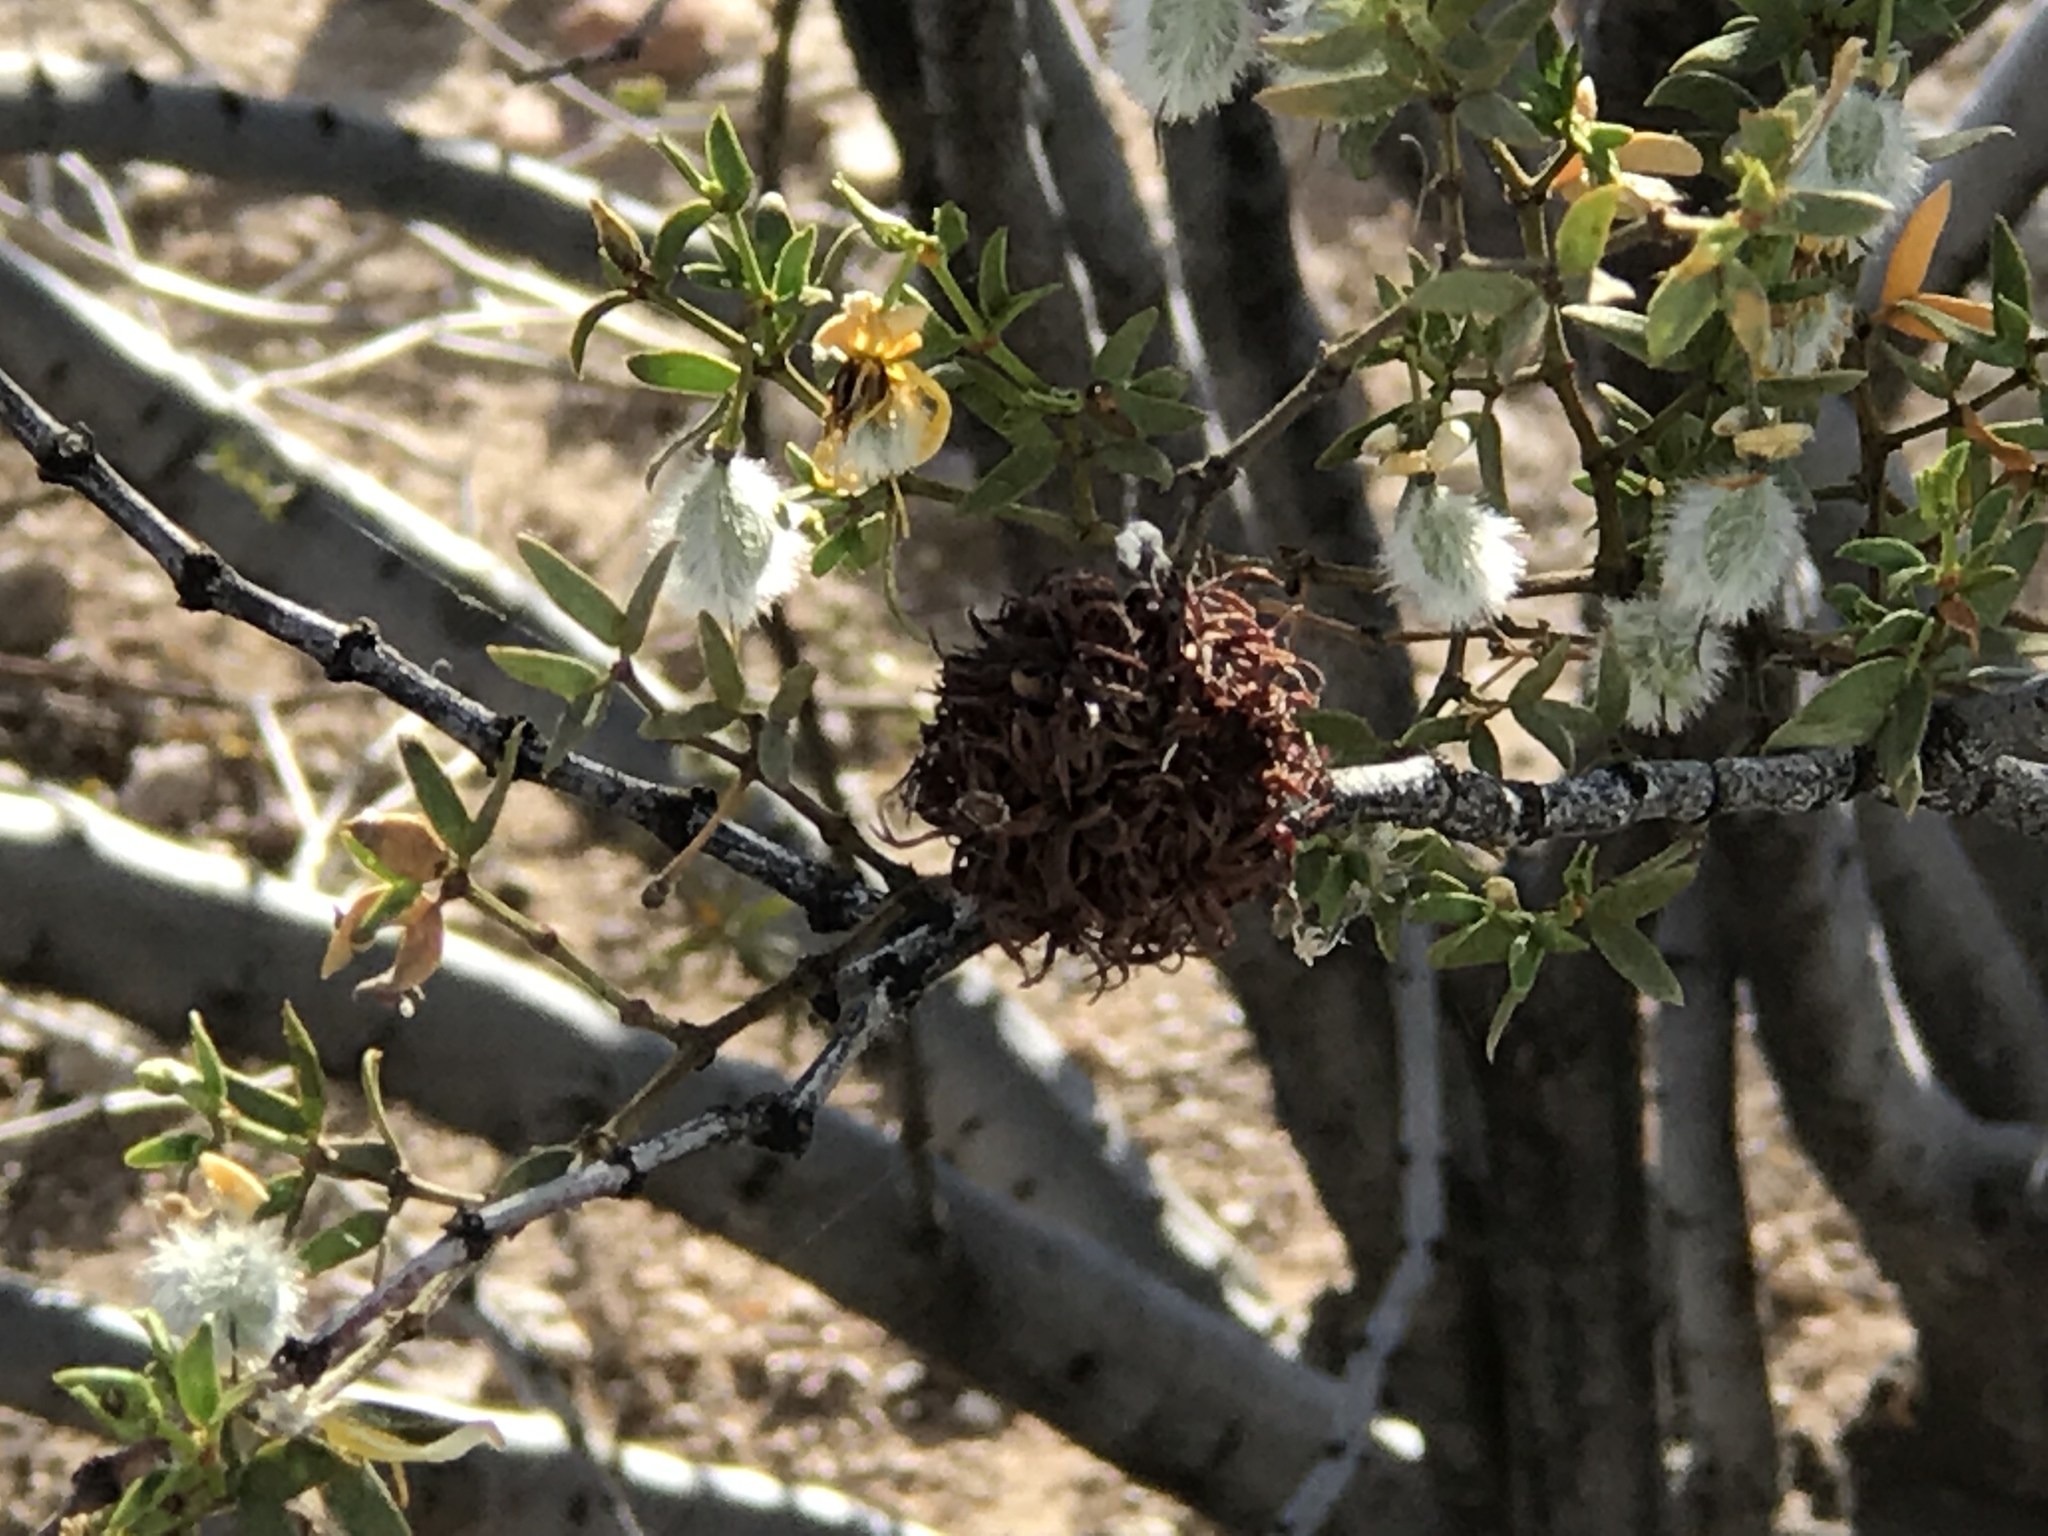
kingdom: Animalia
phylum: Arthropoda
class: Insecta
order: Diptera
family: Cecidomyiidae
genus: Asphondylia
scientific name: Asphondylia auripila
